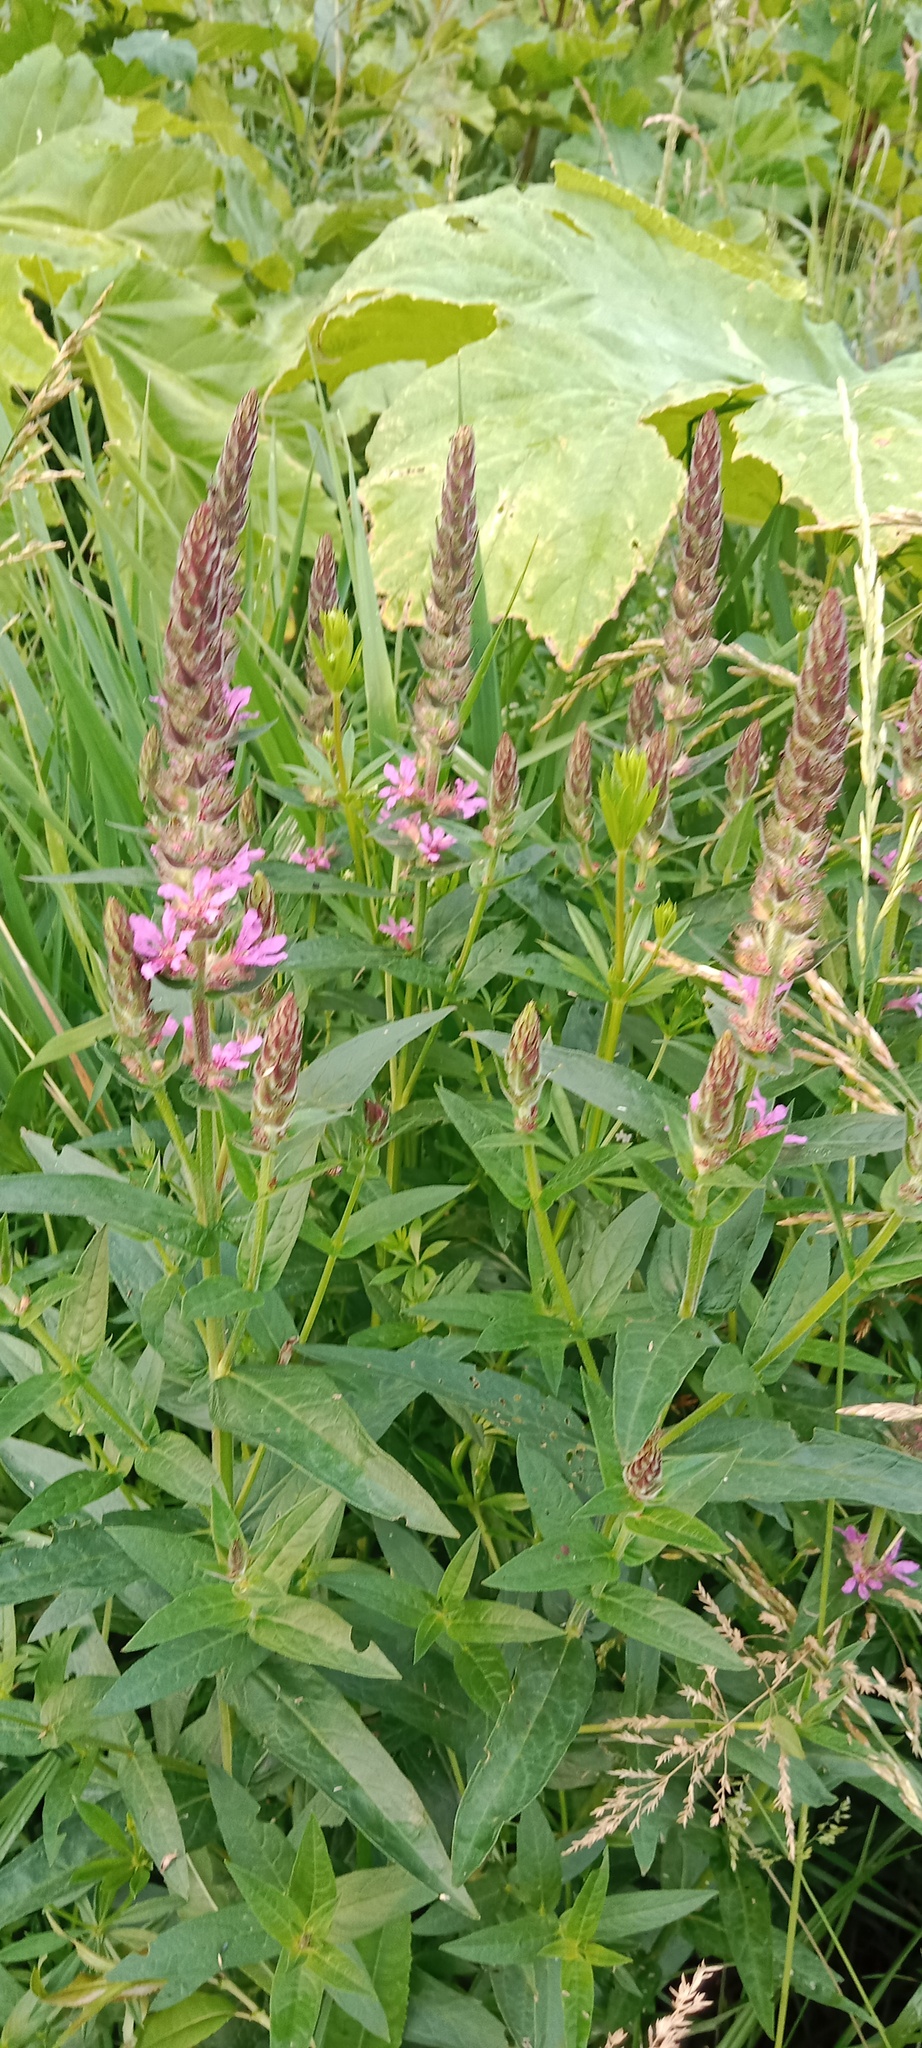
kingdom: Plantae
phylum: Tracheophyta
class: Magnoliopsida
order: Myrtales
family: Lythraceae
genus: Lythrum
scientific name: Lythrum salicaria
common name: Purple loosestrife
